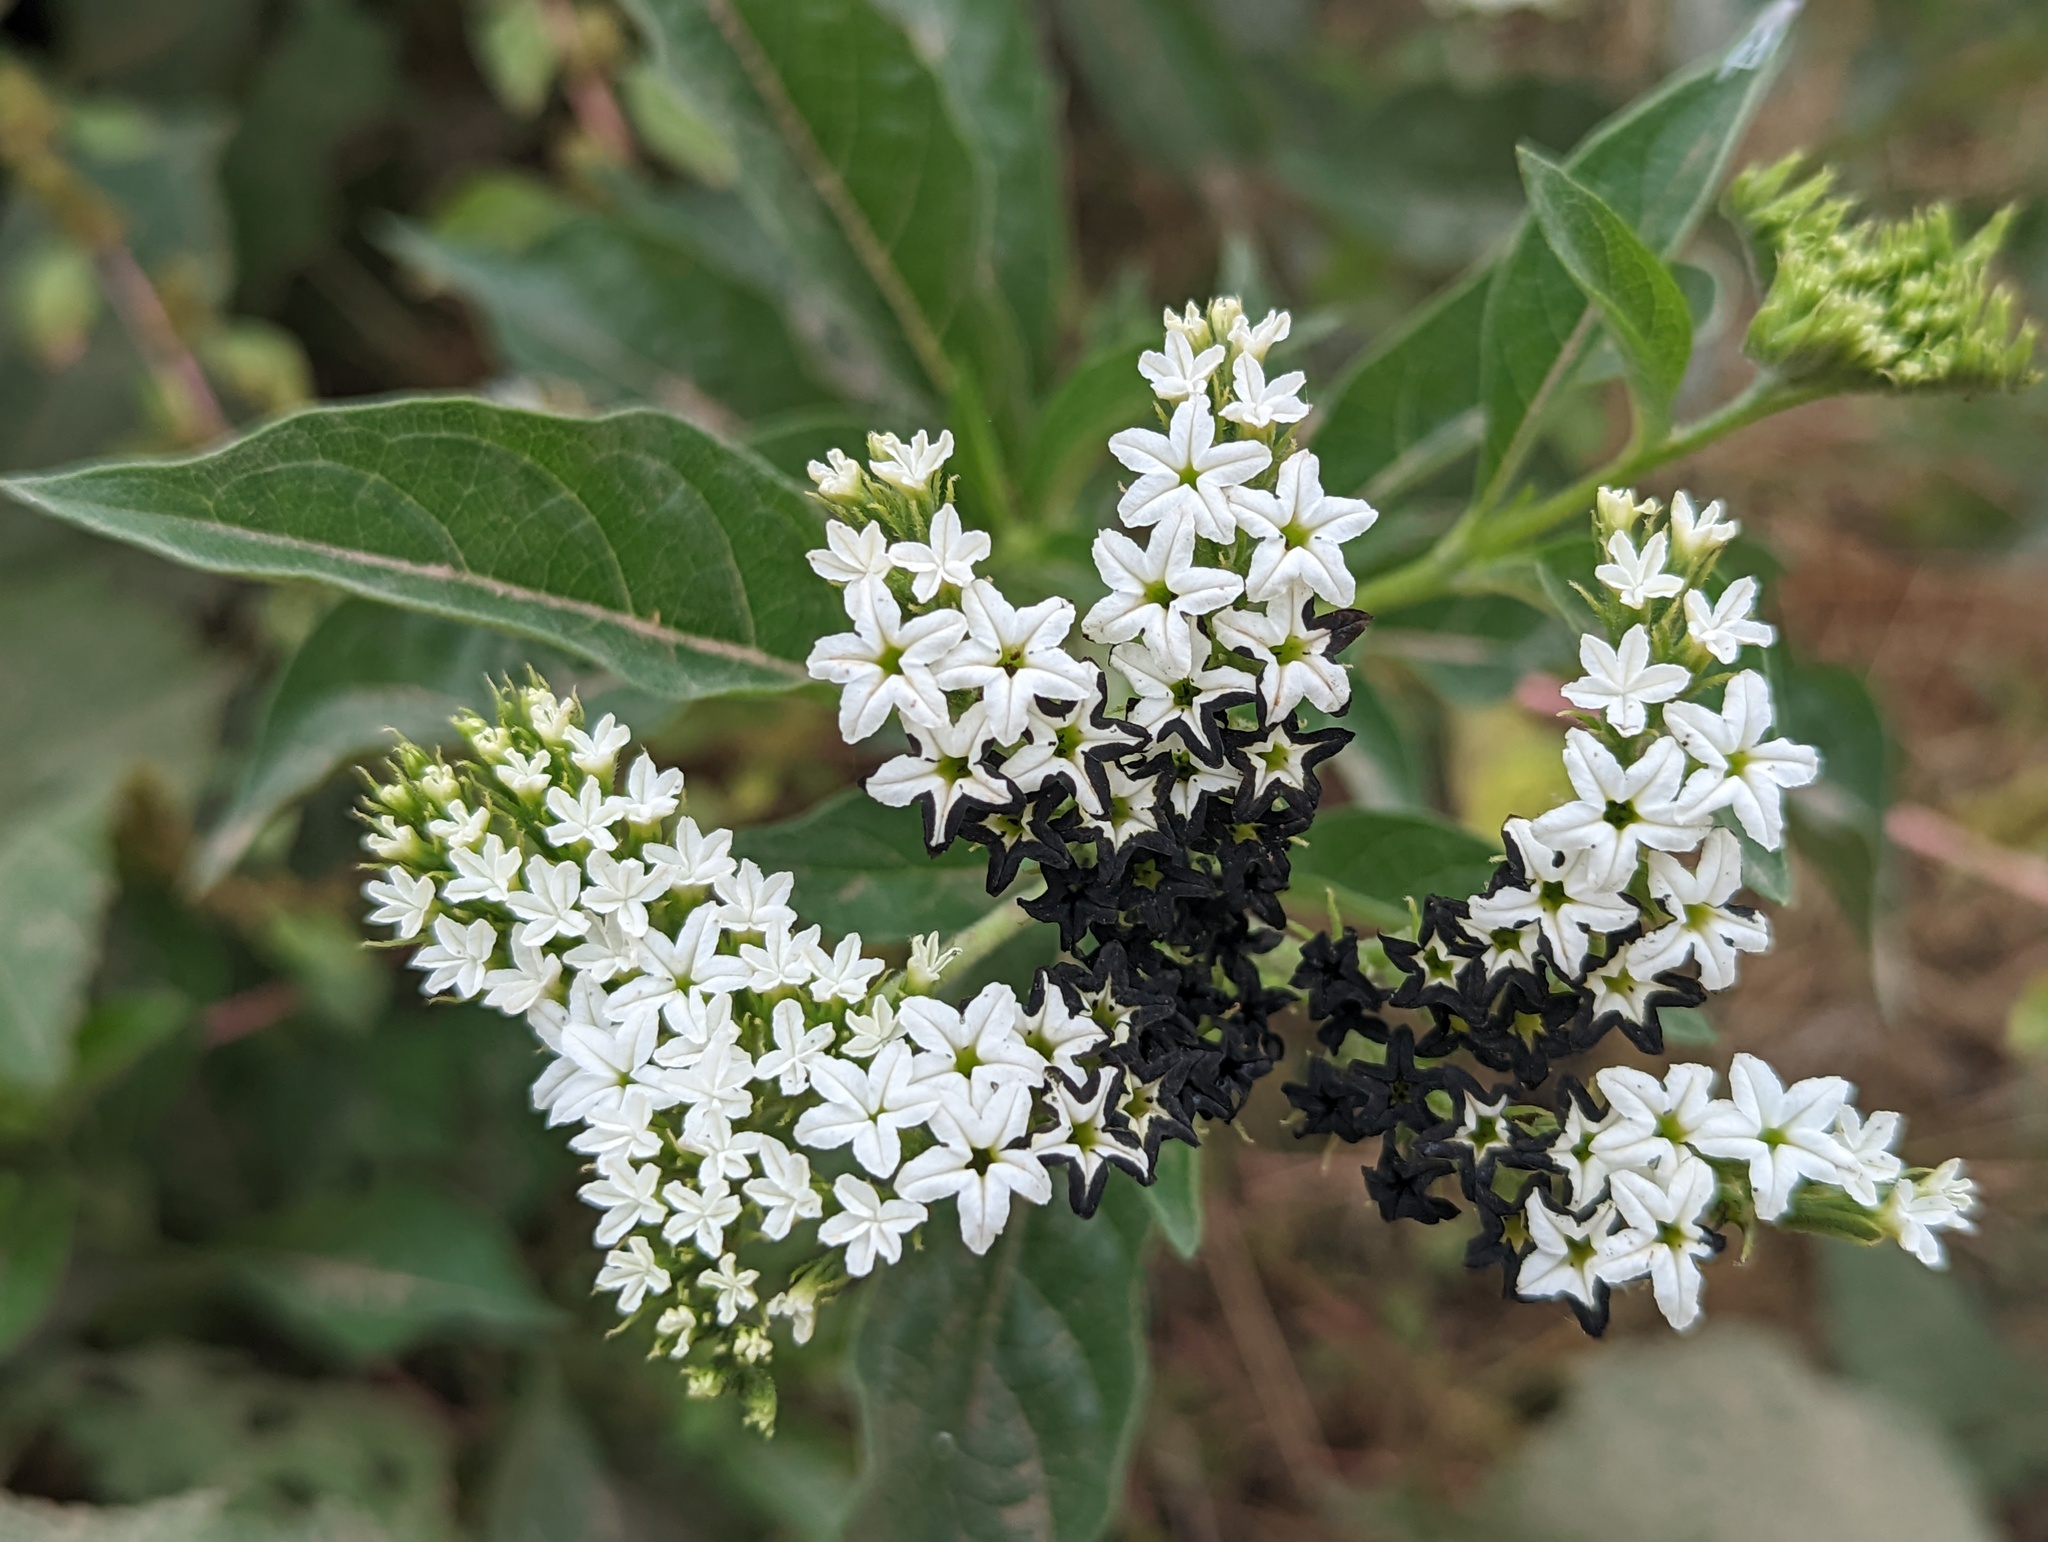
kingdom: Plantae
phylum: Tracheophyta
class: Magnoliopsida
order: Boraginales
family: Heliotropiaceae
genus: Tournefortia
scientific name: Tournefortia mutabilis
